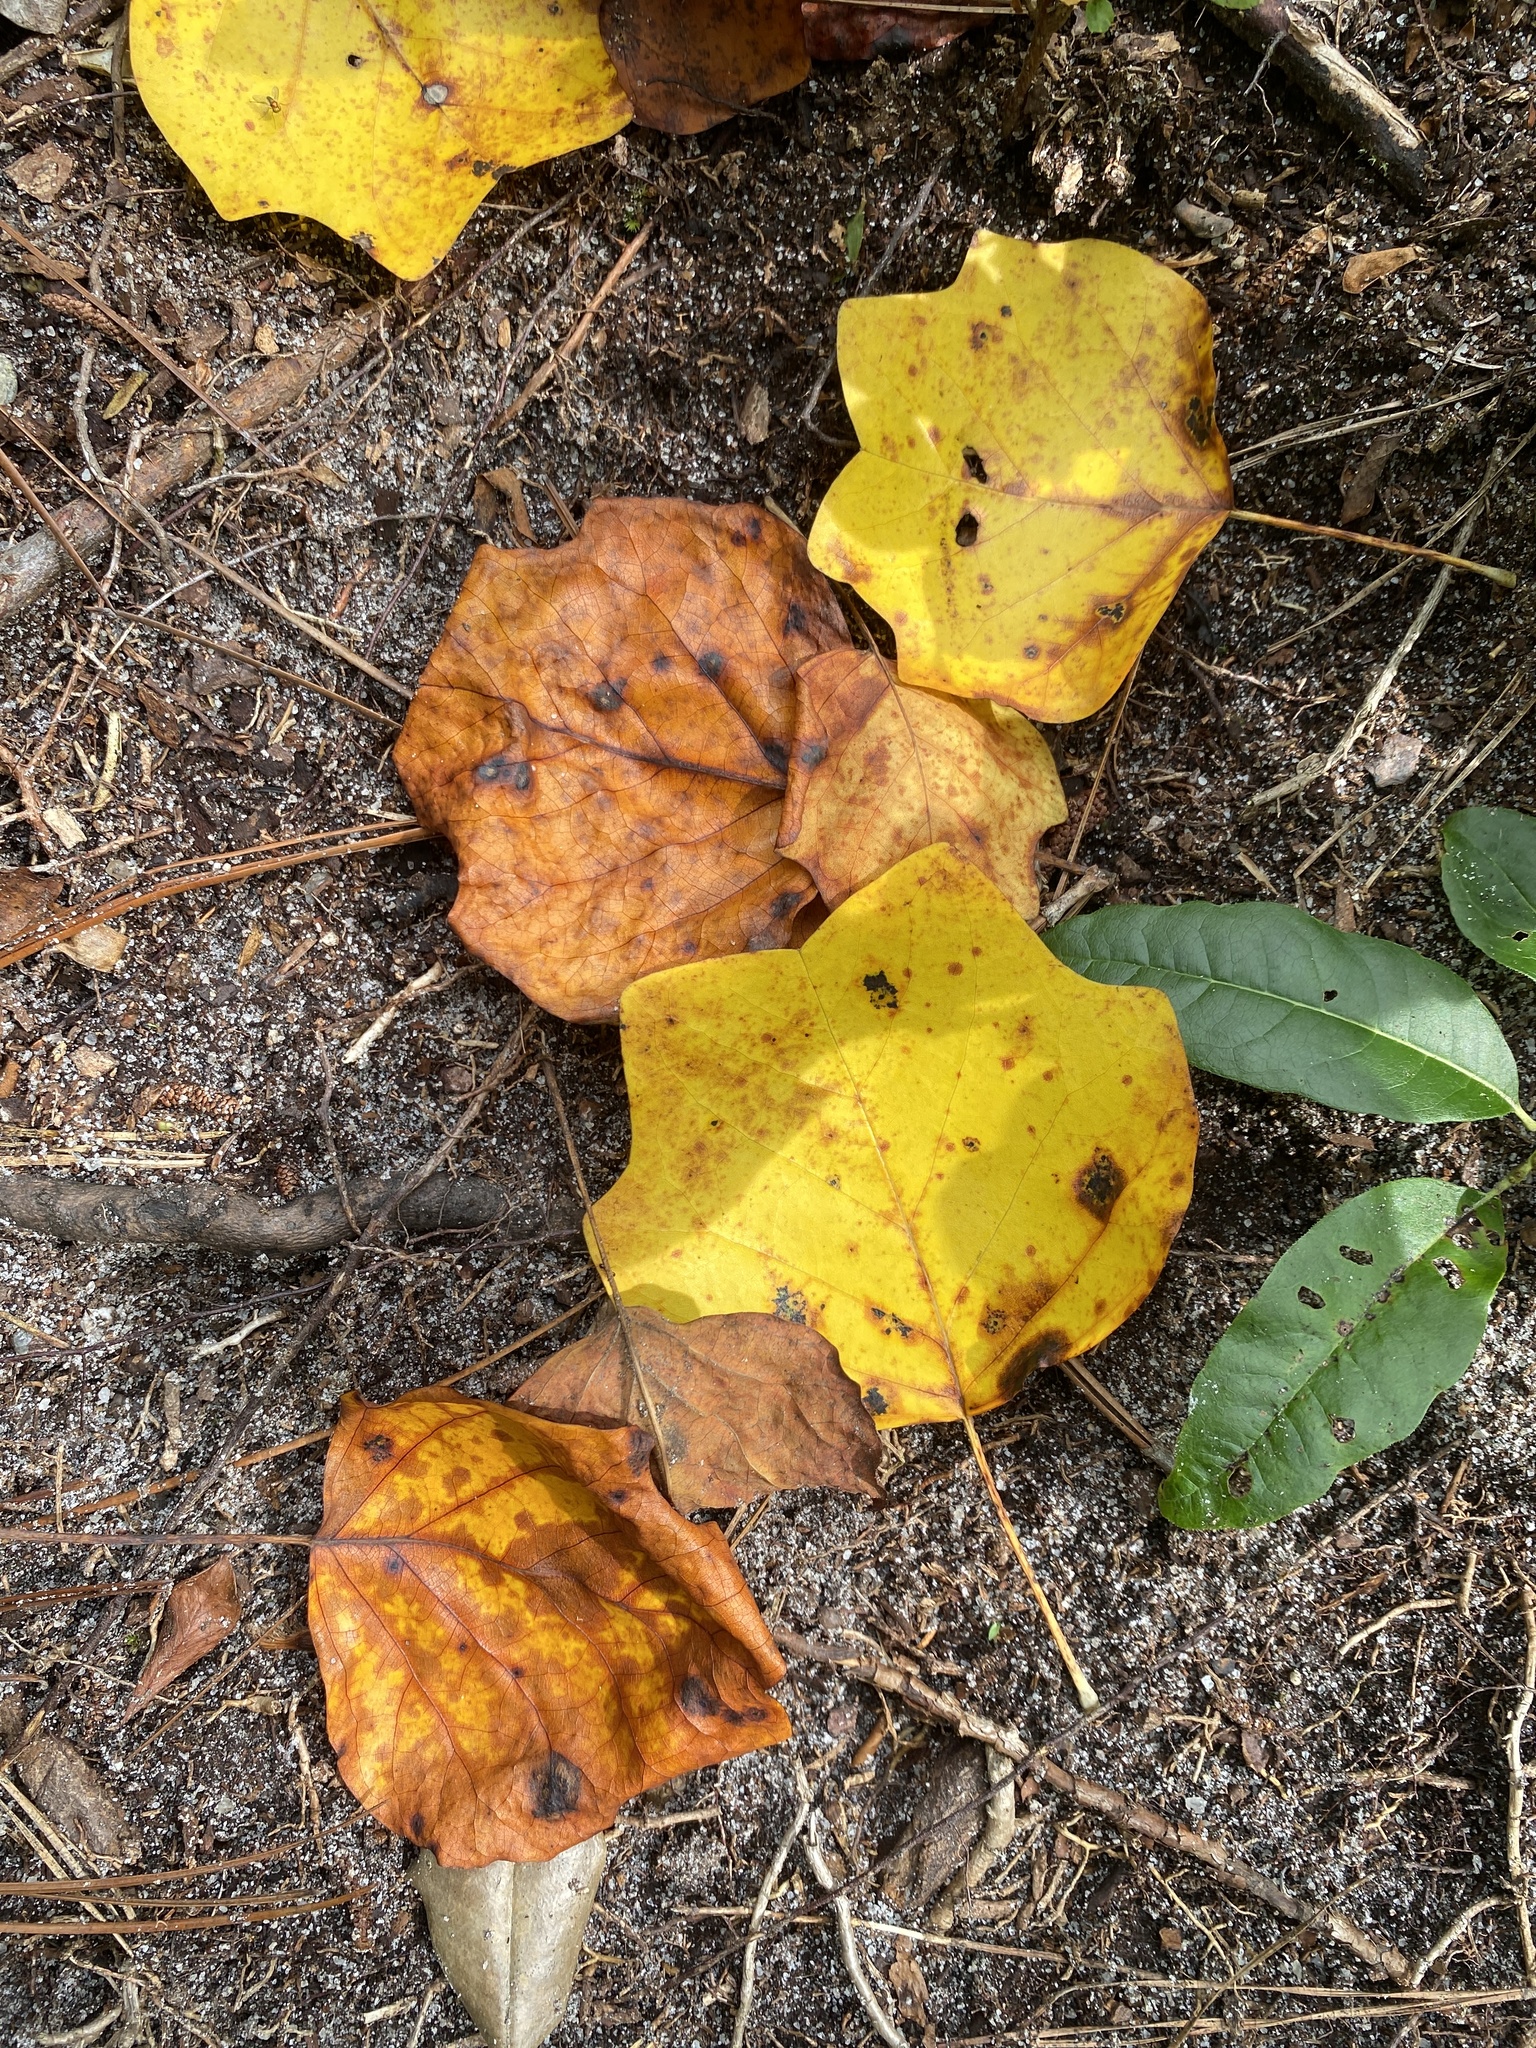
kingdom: Plantae
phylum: Tracheophyta
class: Magnoliopsida
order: Magnoliales
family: Magnoliaceae
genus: Liriodendron
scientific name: Liriodendron tulipifera
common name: Tulip tree
